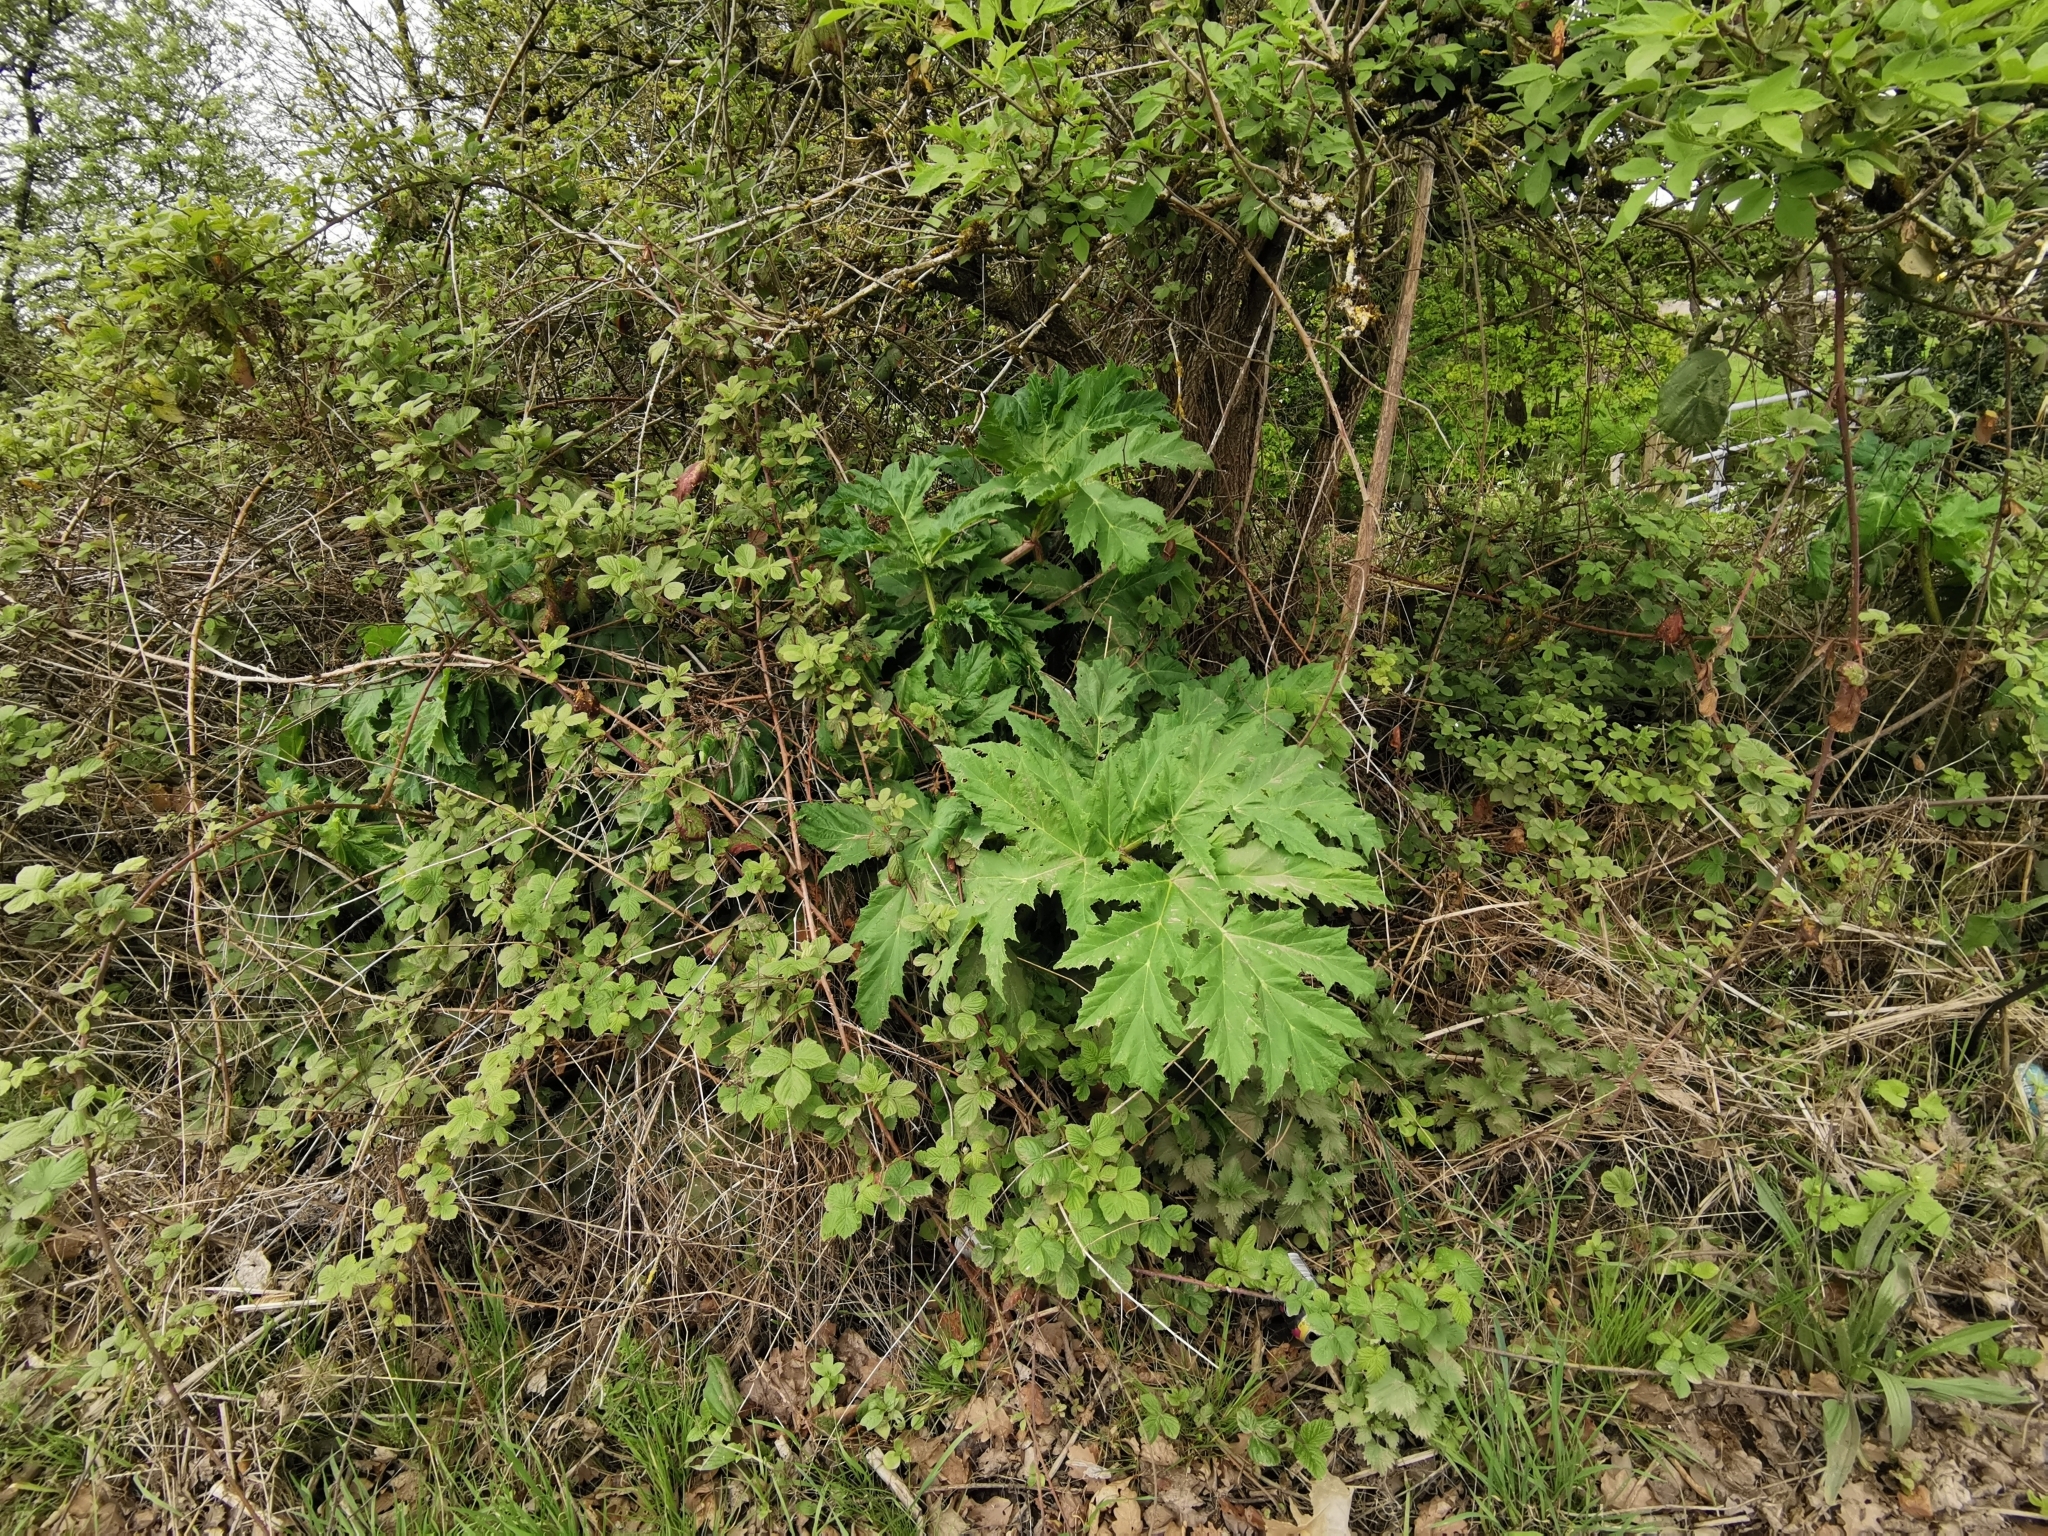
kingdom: Plantae
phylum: Tracheophyta
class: Magnoliopsida
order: Apiales
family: Apiaceae
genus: Heracleum
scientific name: Heracleum mantegazzianum
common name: Giant hogweed
